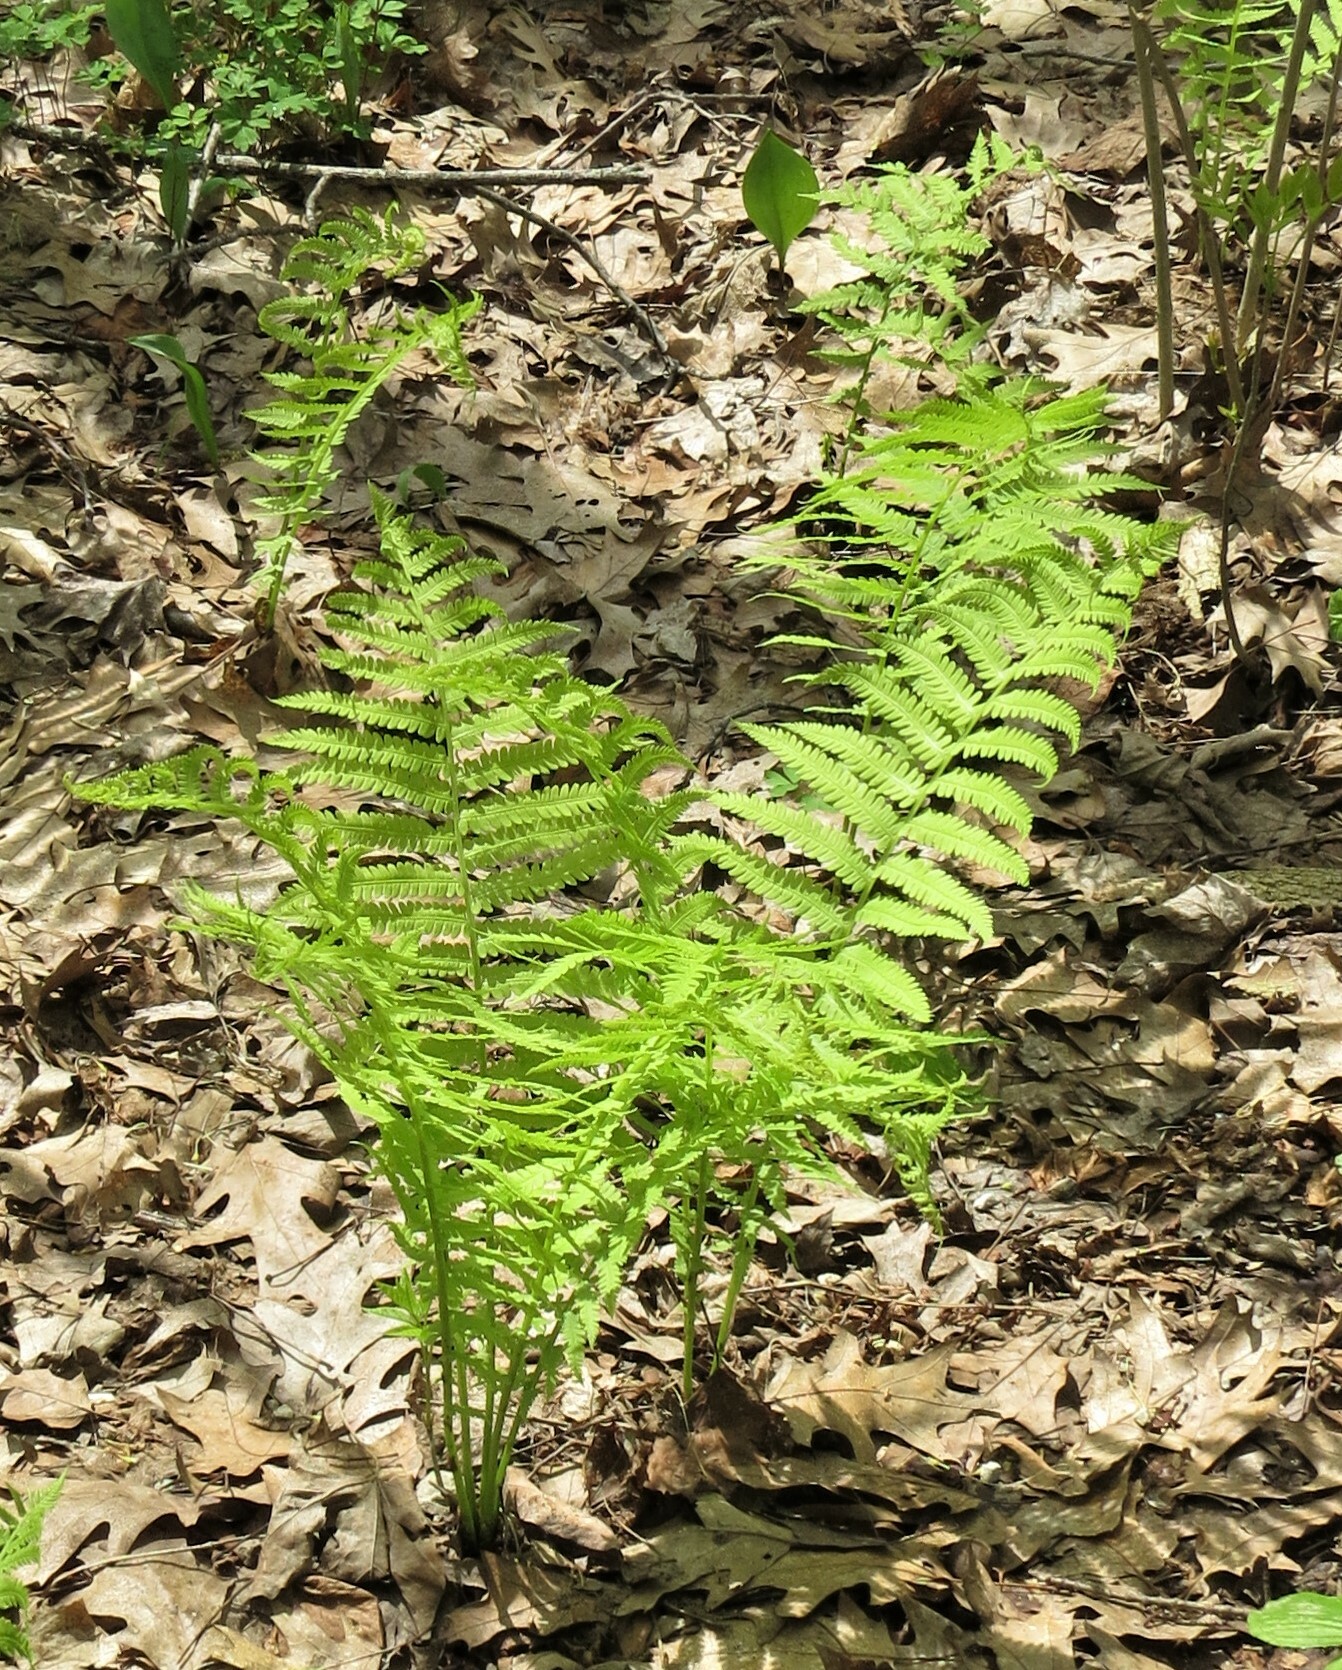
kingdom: Plantae
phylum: Tracheophyta
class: Polypodiopsida
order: Polypodiales
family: Onocleaceae
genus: Matteuccia
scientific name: Matteuccia struthiopteris
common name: Ostrich fern
